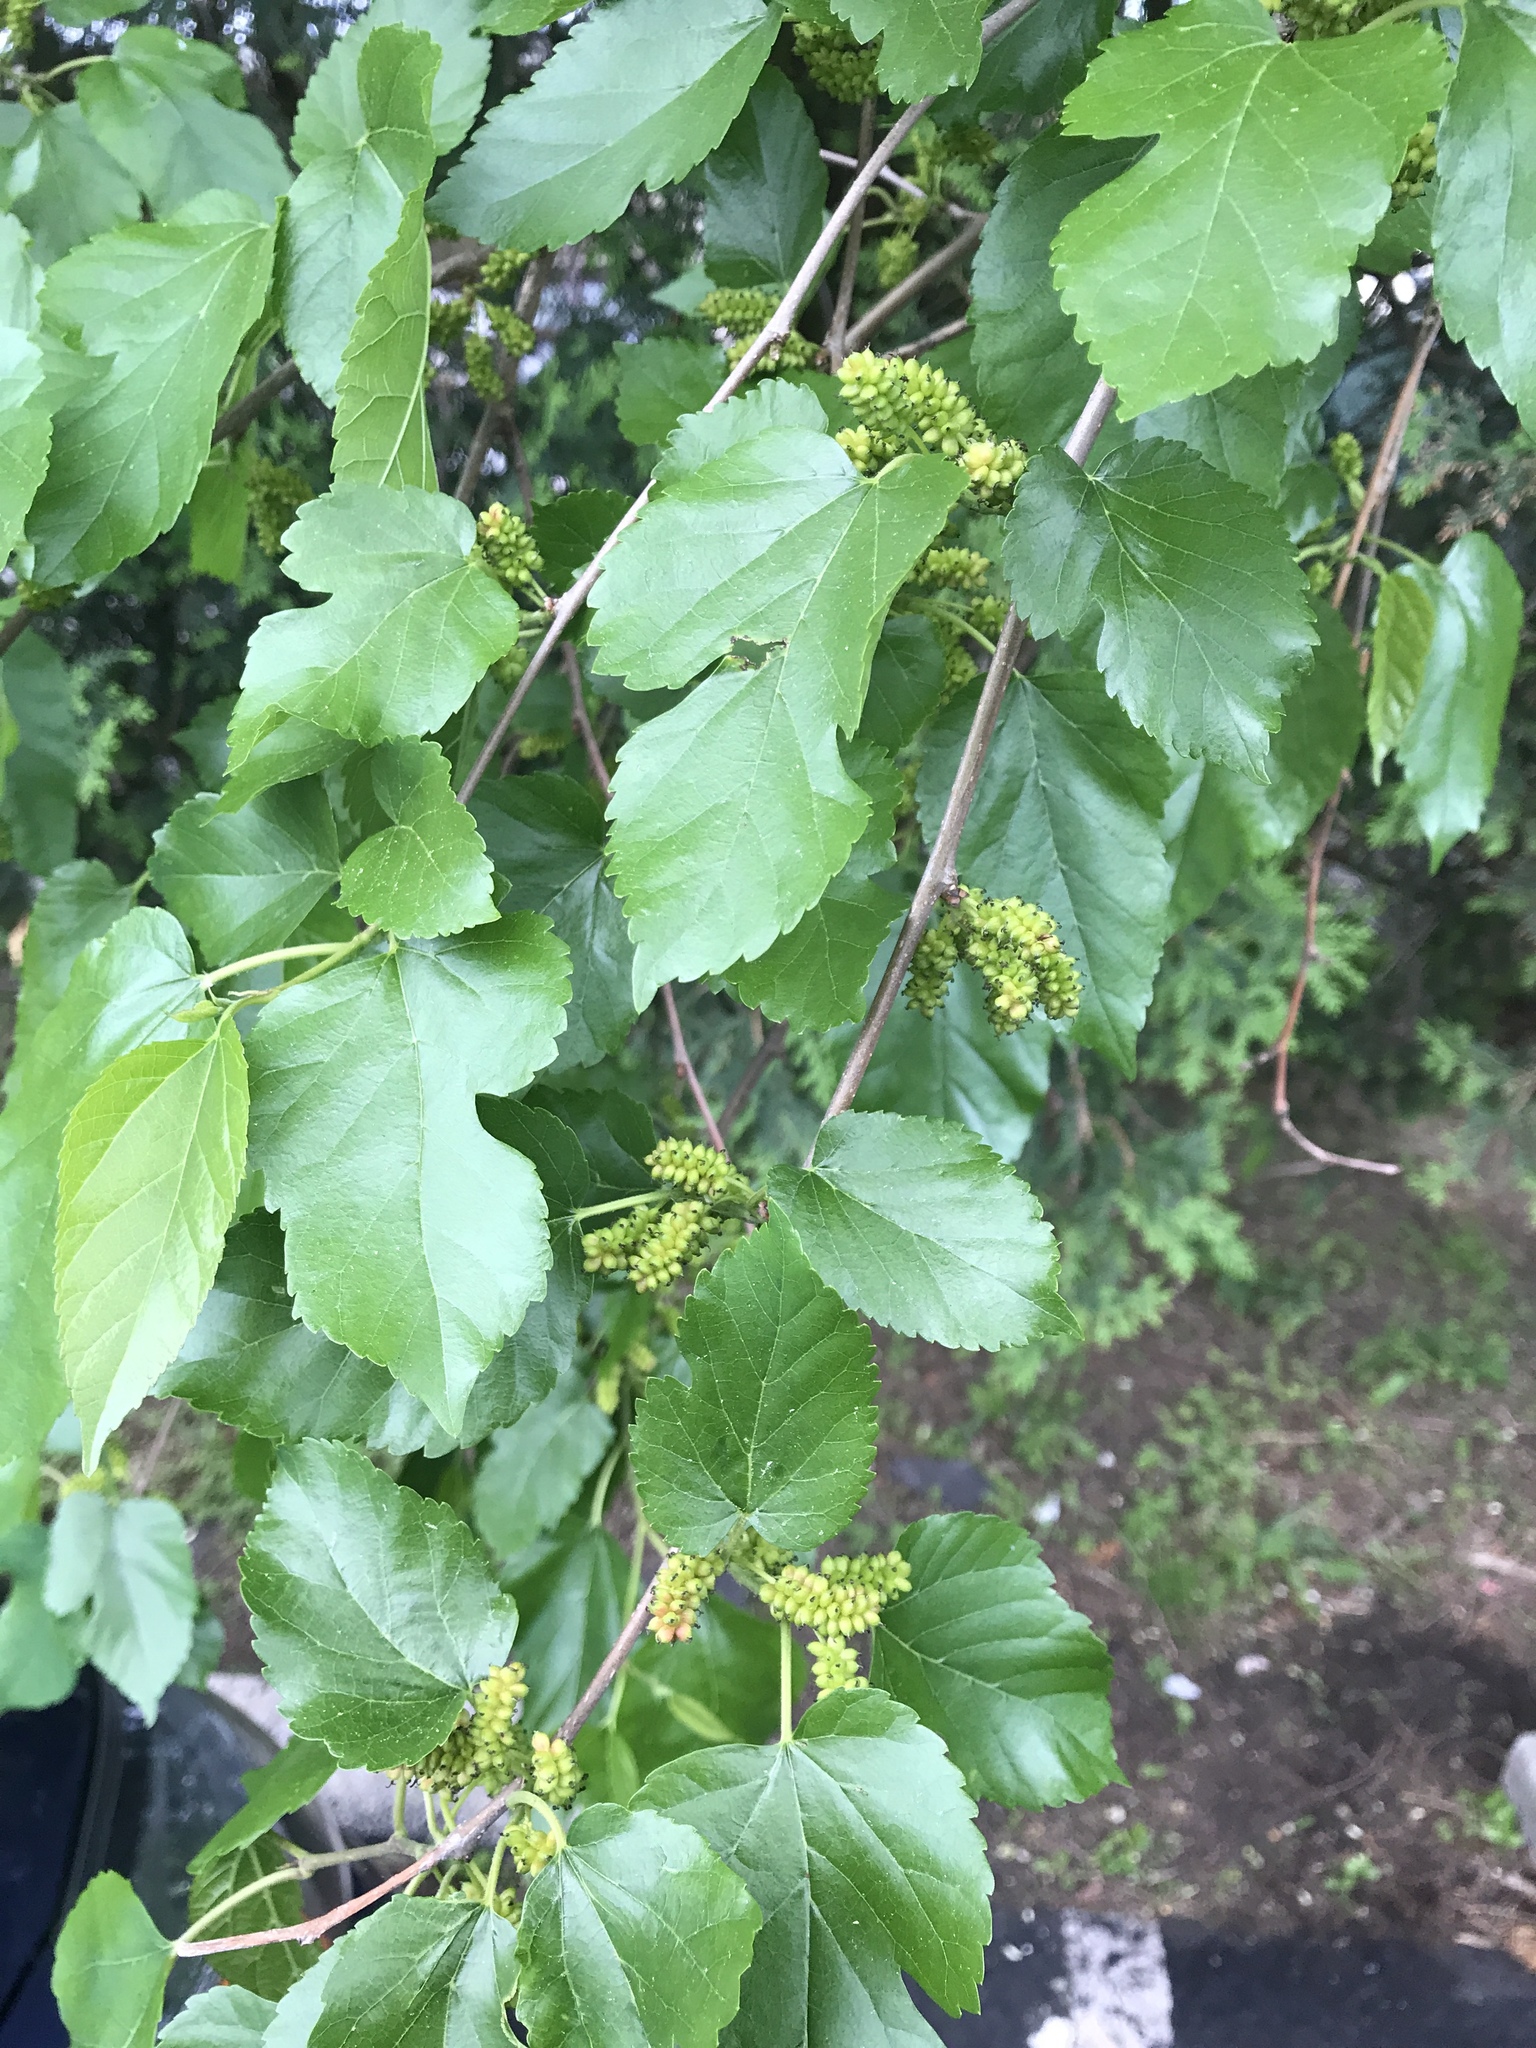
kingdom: Plantae
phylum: Tracheophyta
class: Magnoliopsida
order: Rosales
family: Moraceae
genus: Morus
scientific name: Morus alba
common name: White mulberry
